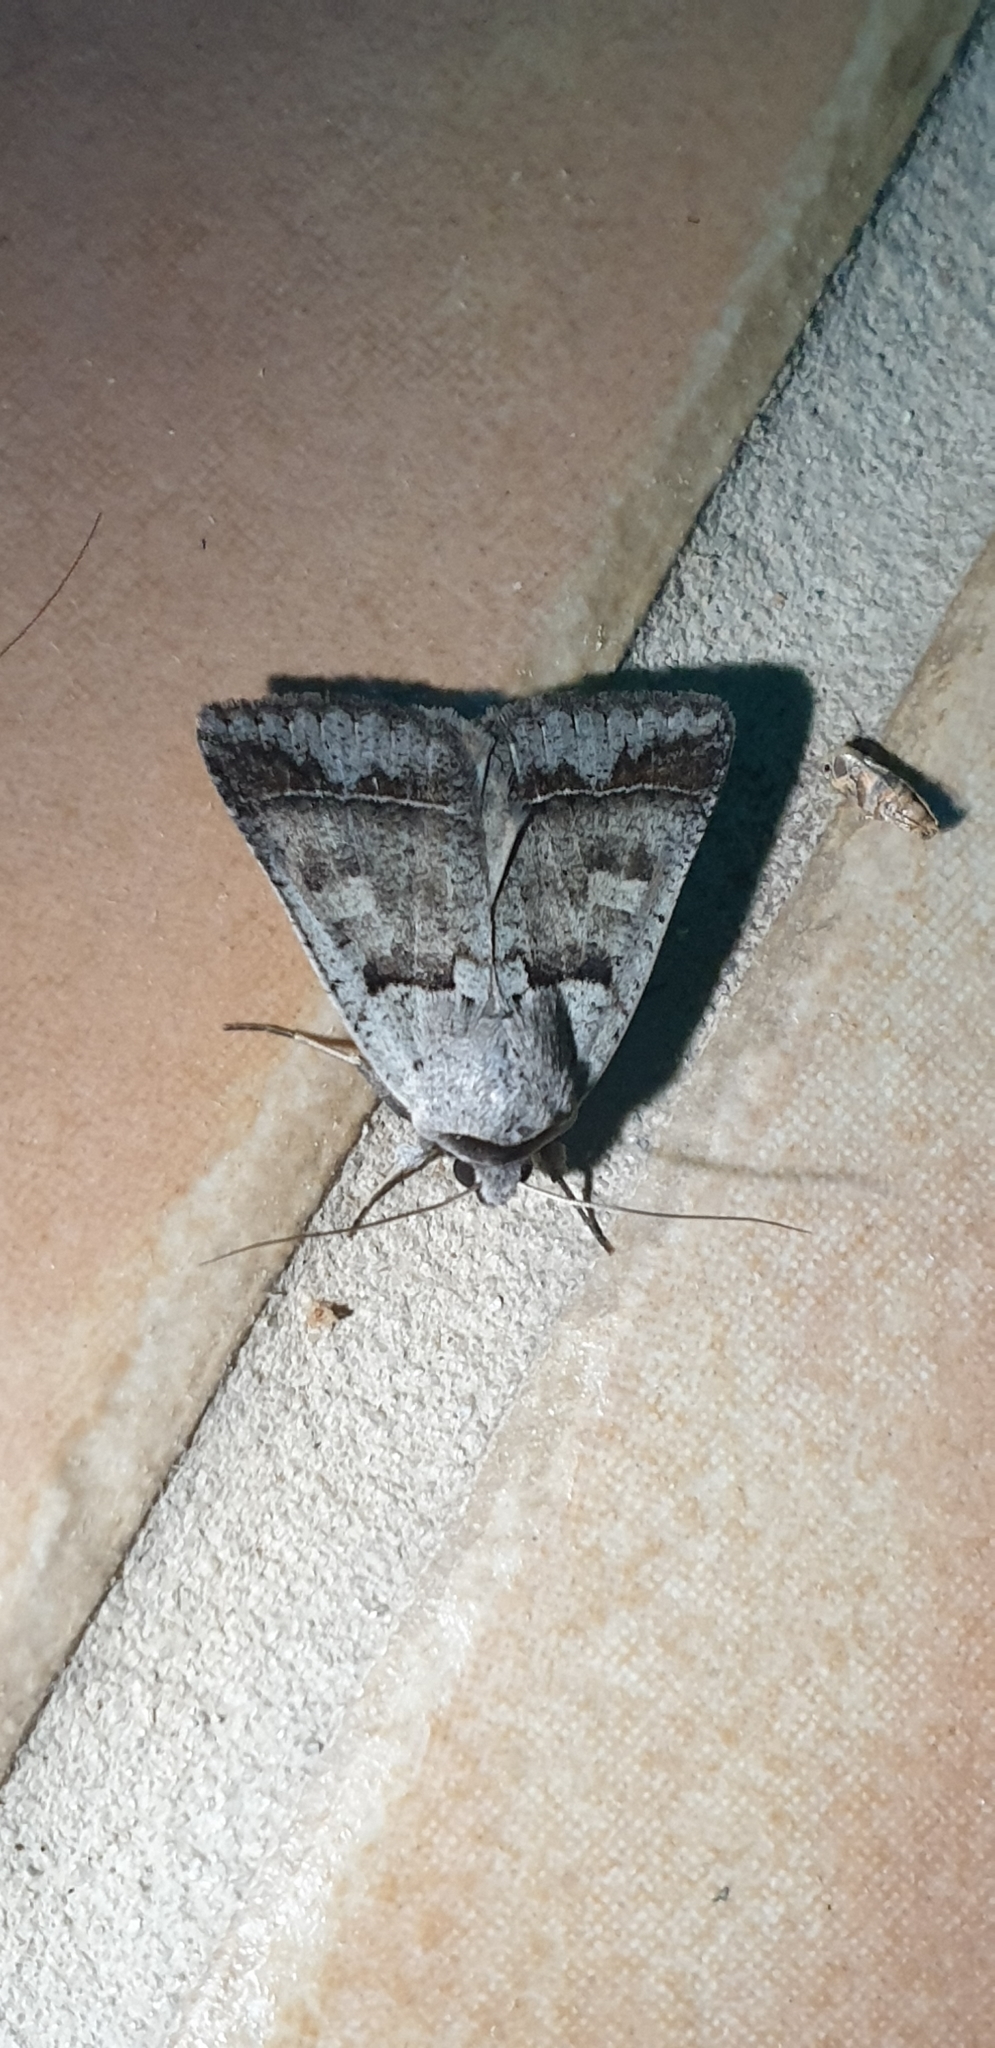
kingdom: Animalia
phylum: Arthropoda
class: Insecta
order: Lepidoptera
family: Erebidae
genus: Pantydia
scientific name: Pantydia sparsa
